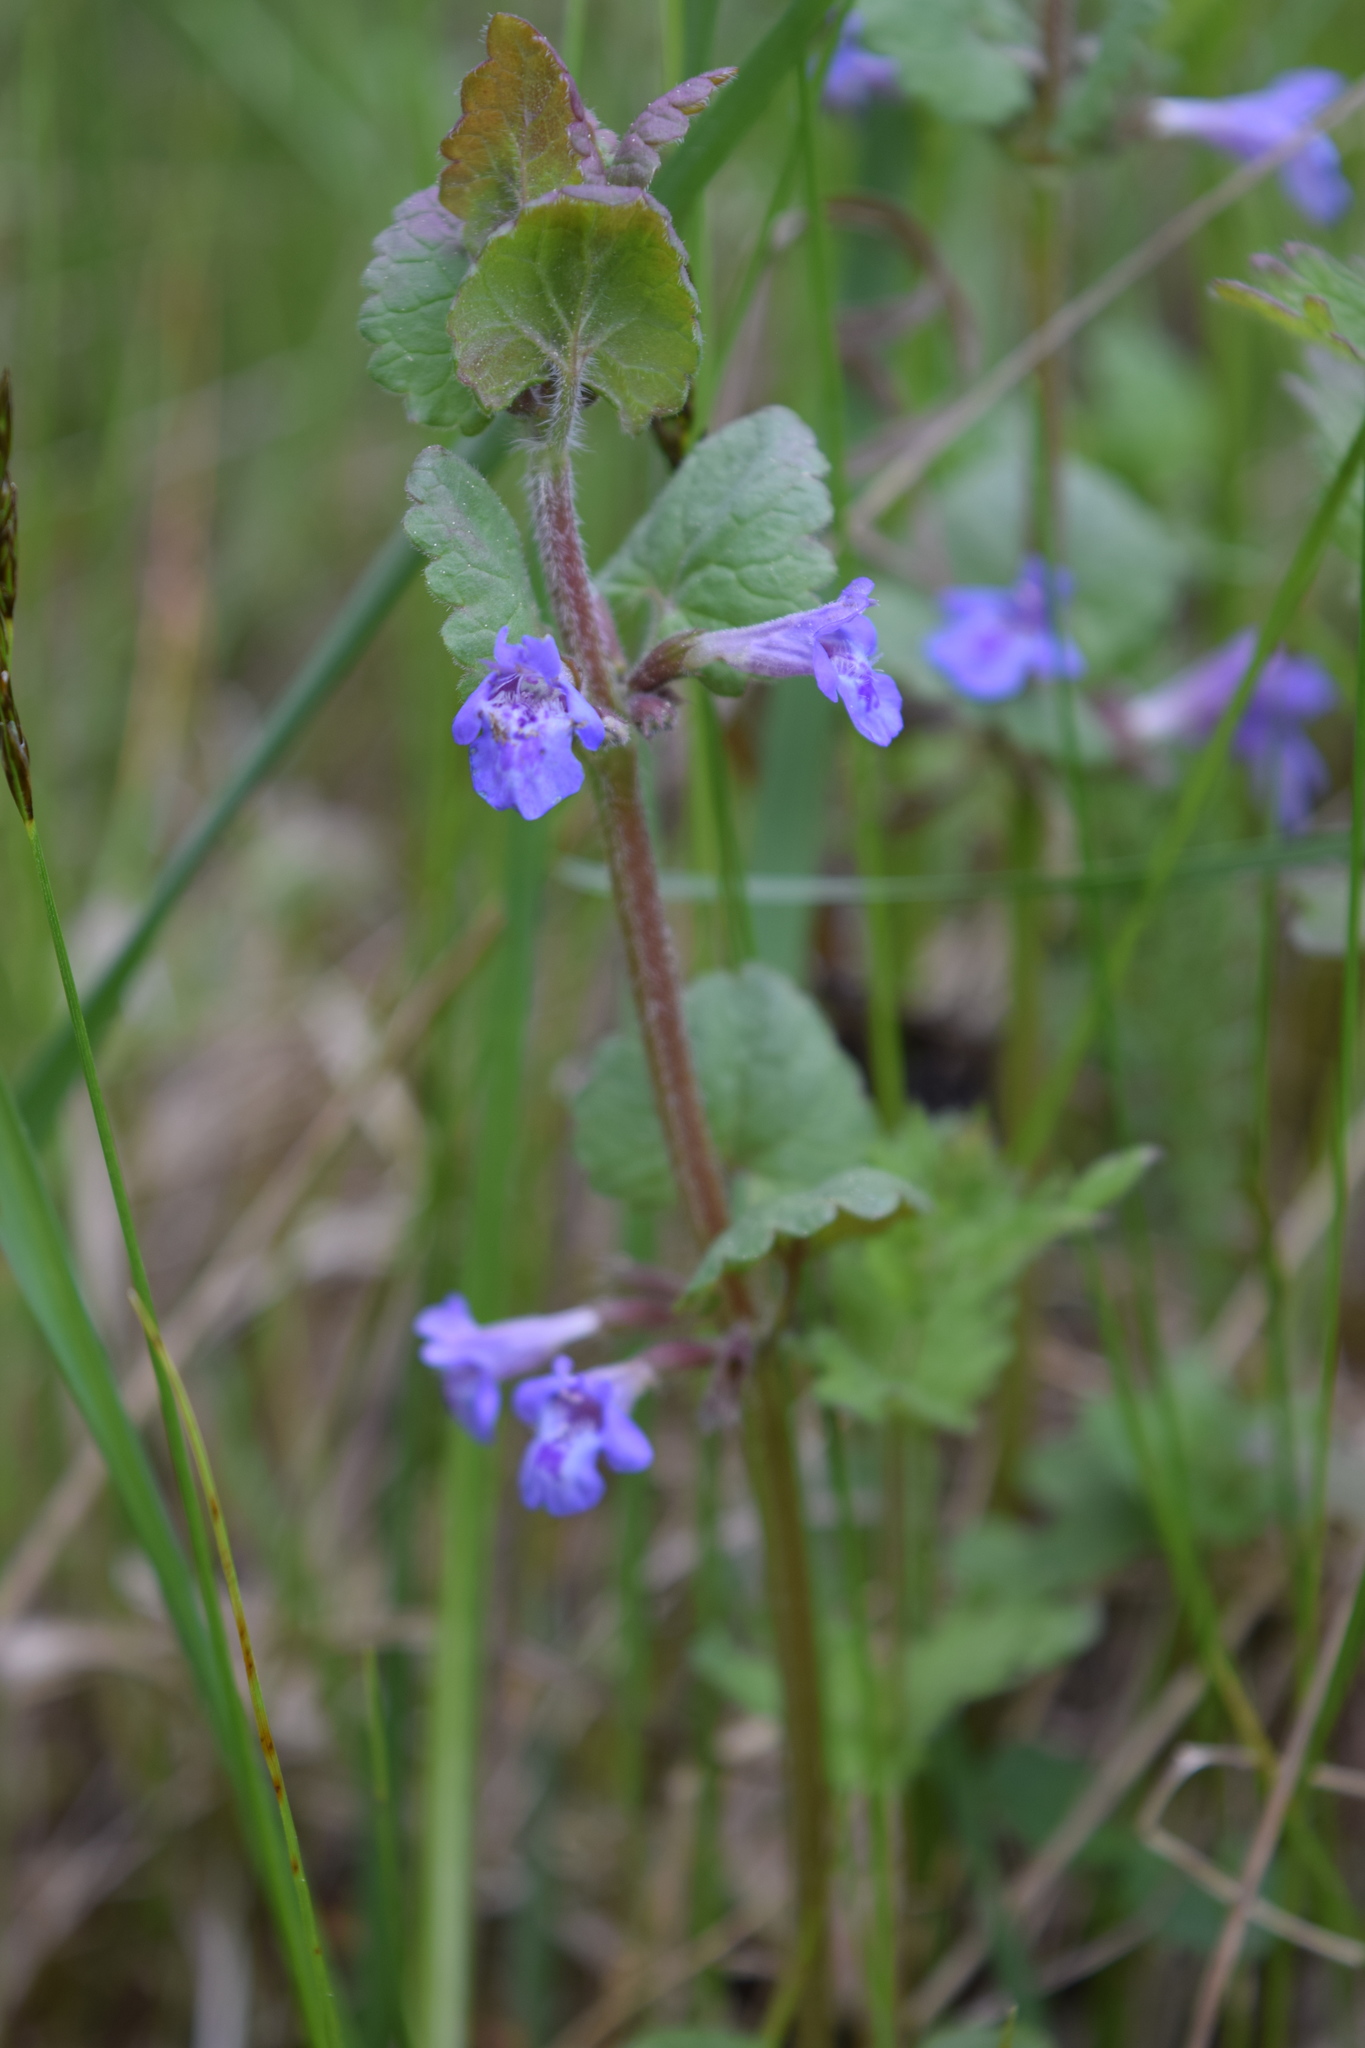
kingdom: Plantae
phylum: Tracheophyta
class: Magnoliopsida
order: Lamiales
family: Lamiaceae
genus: Glechoma
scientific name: Glechoma hederacea
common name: Ground ivy
